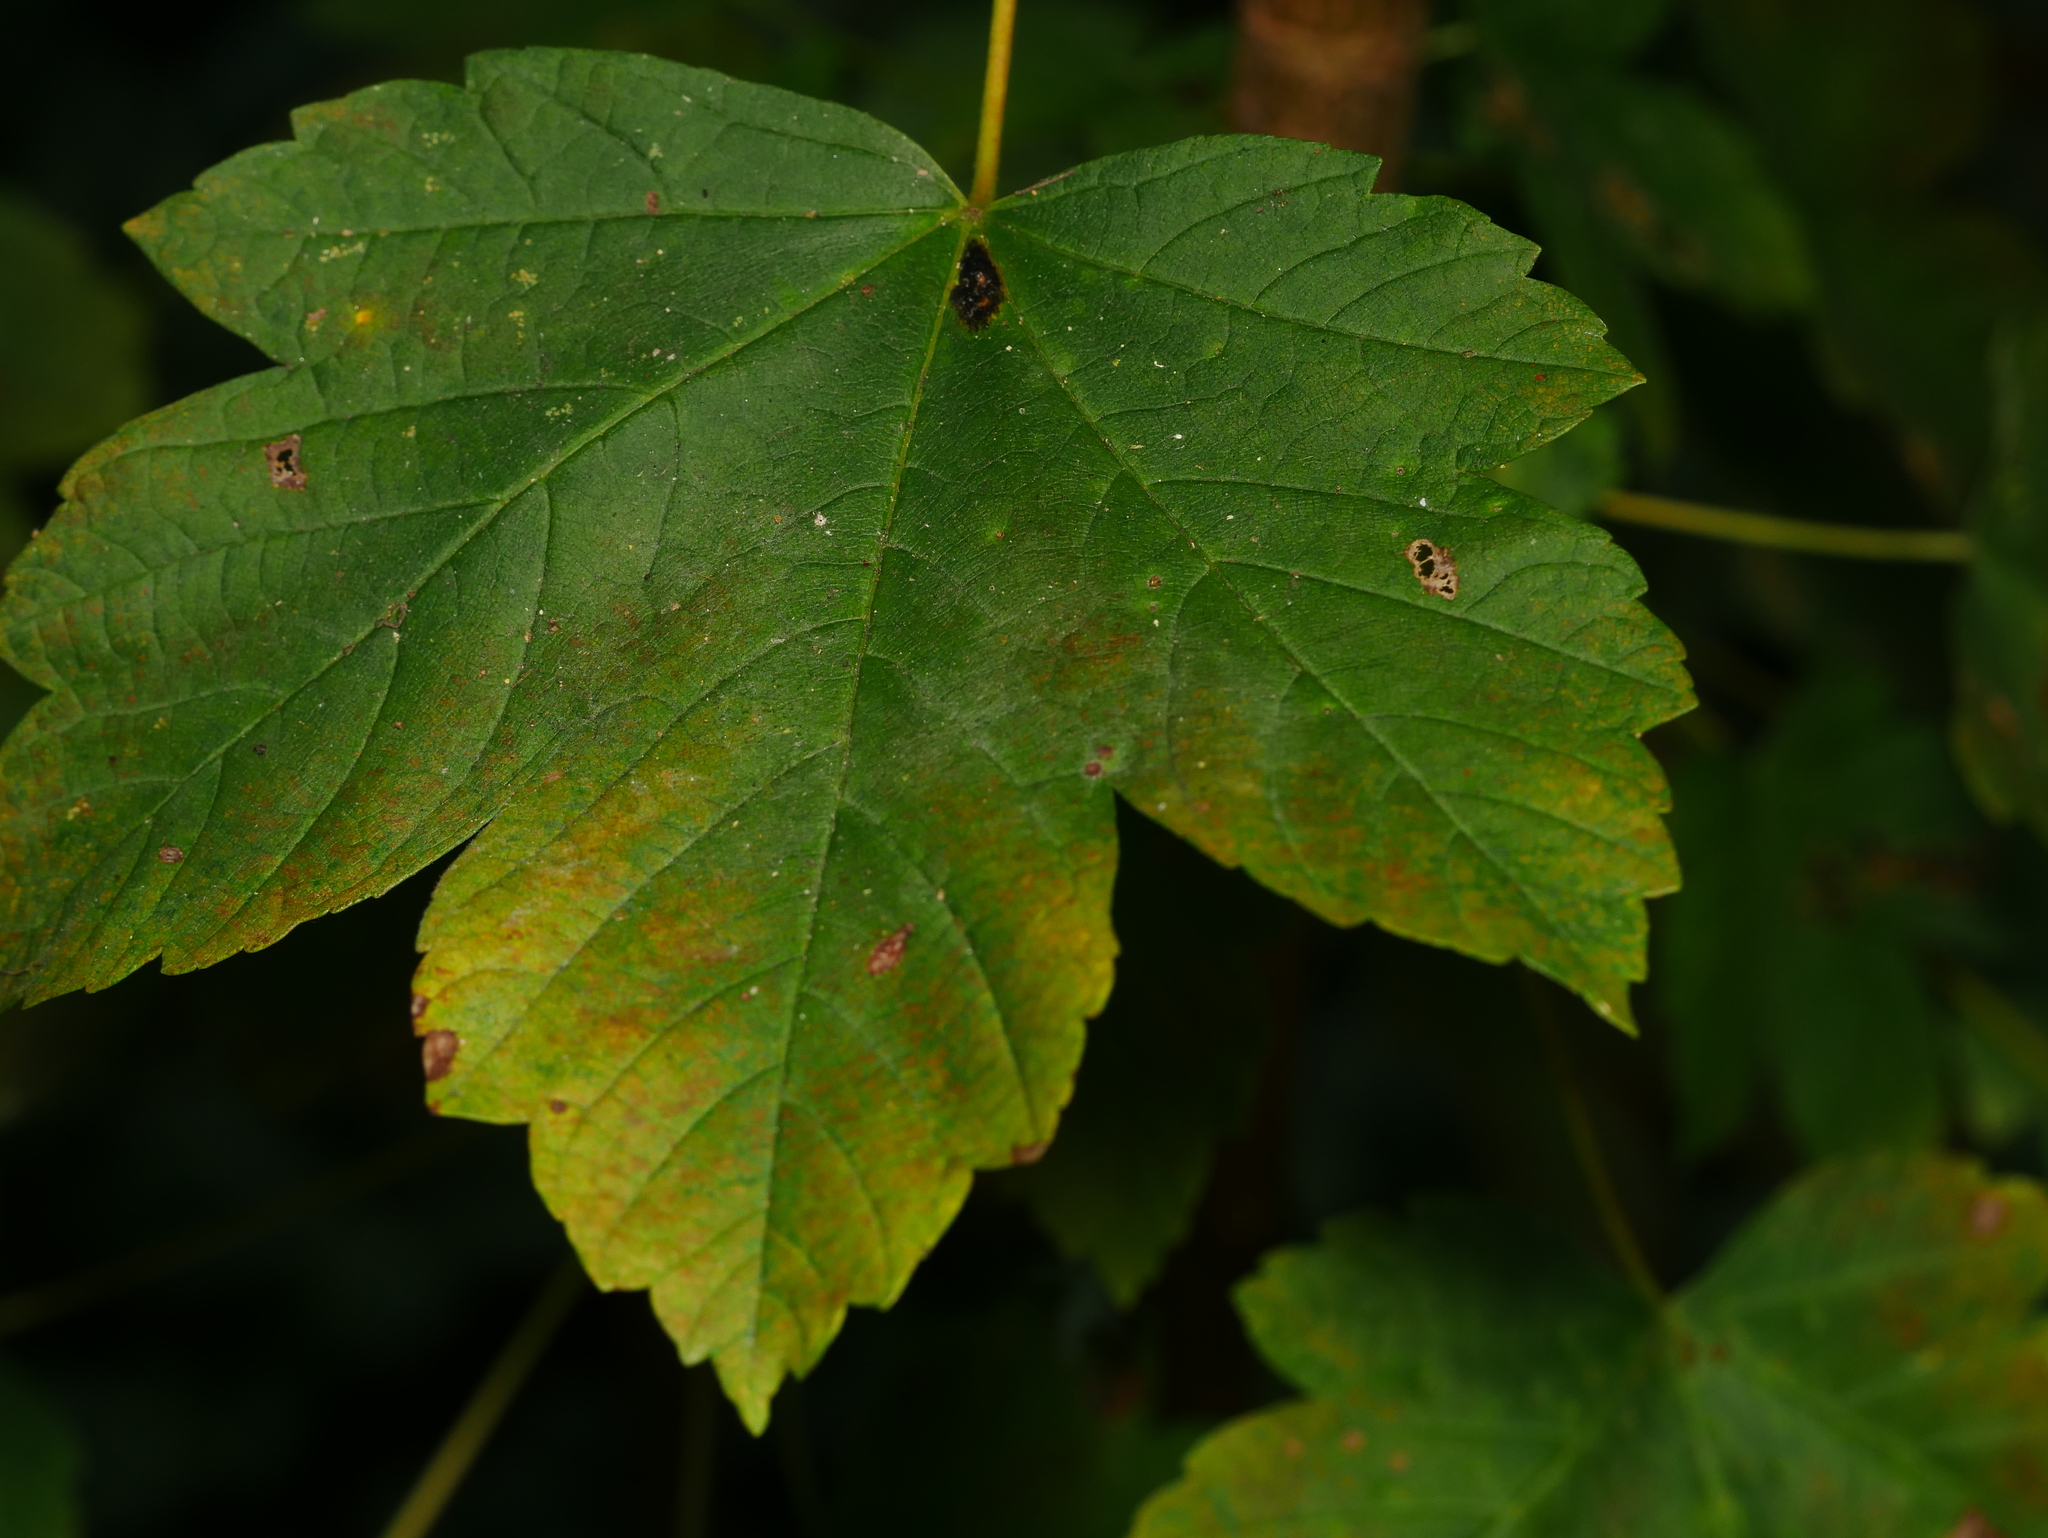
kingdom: Plantae
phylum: Tracheophyta
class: Magnoliopsida
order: Sapindales
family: Sapindaceae
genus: Acer
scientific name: Acer pseudoplatanus
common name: Sycamore
